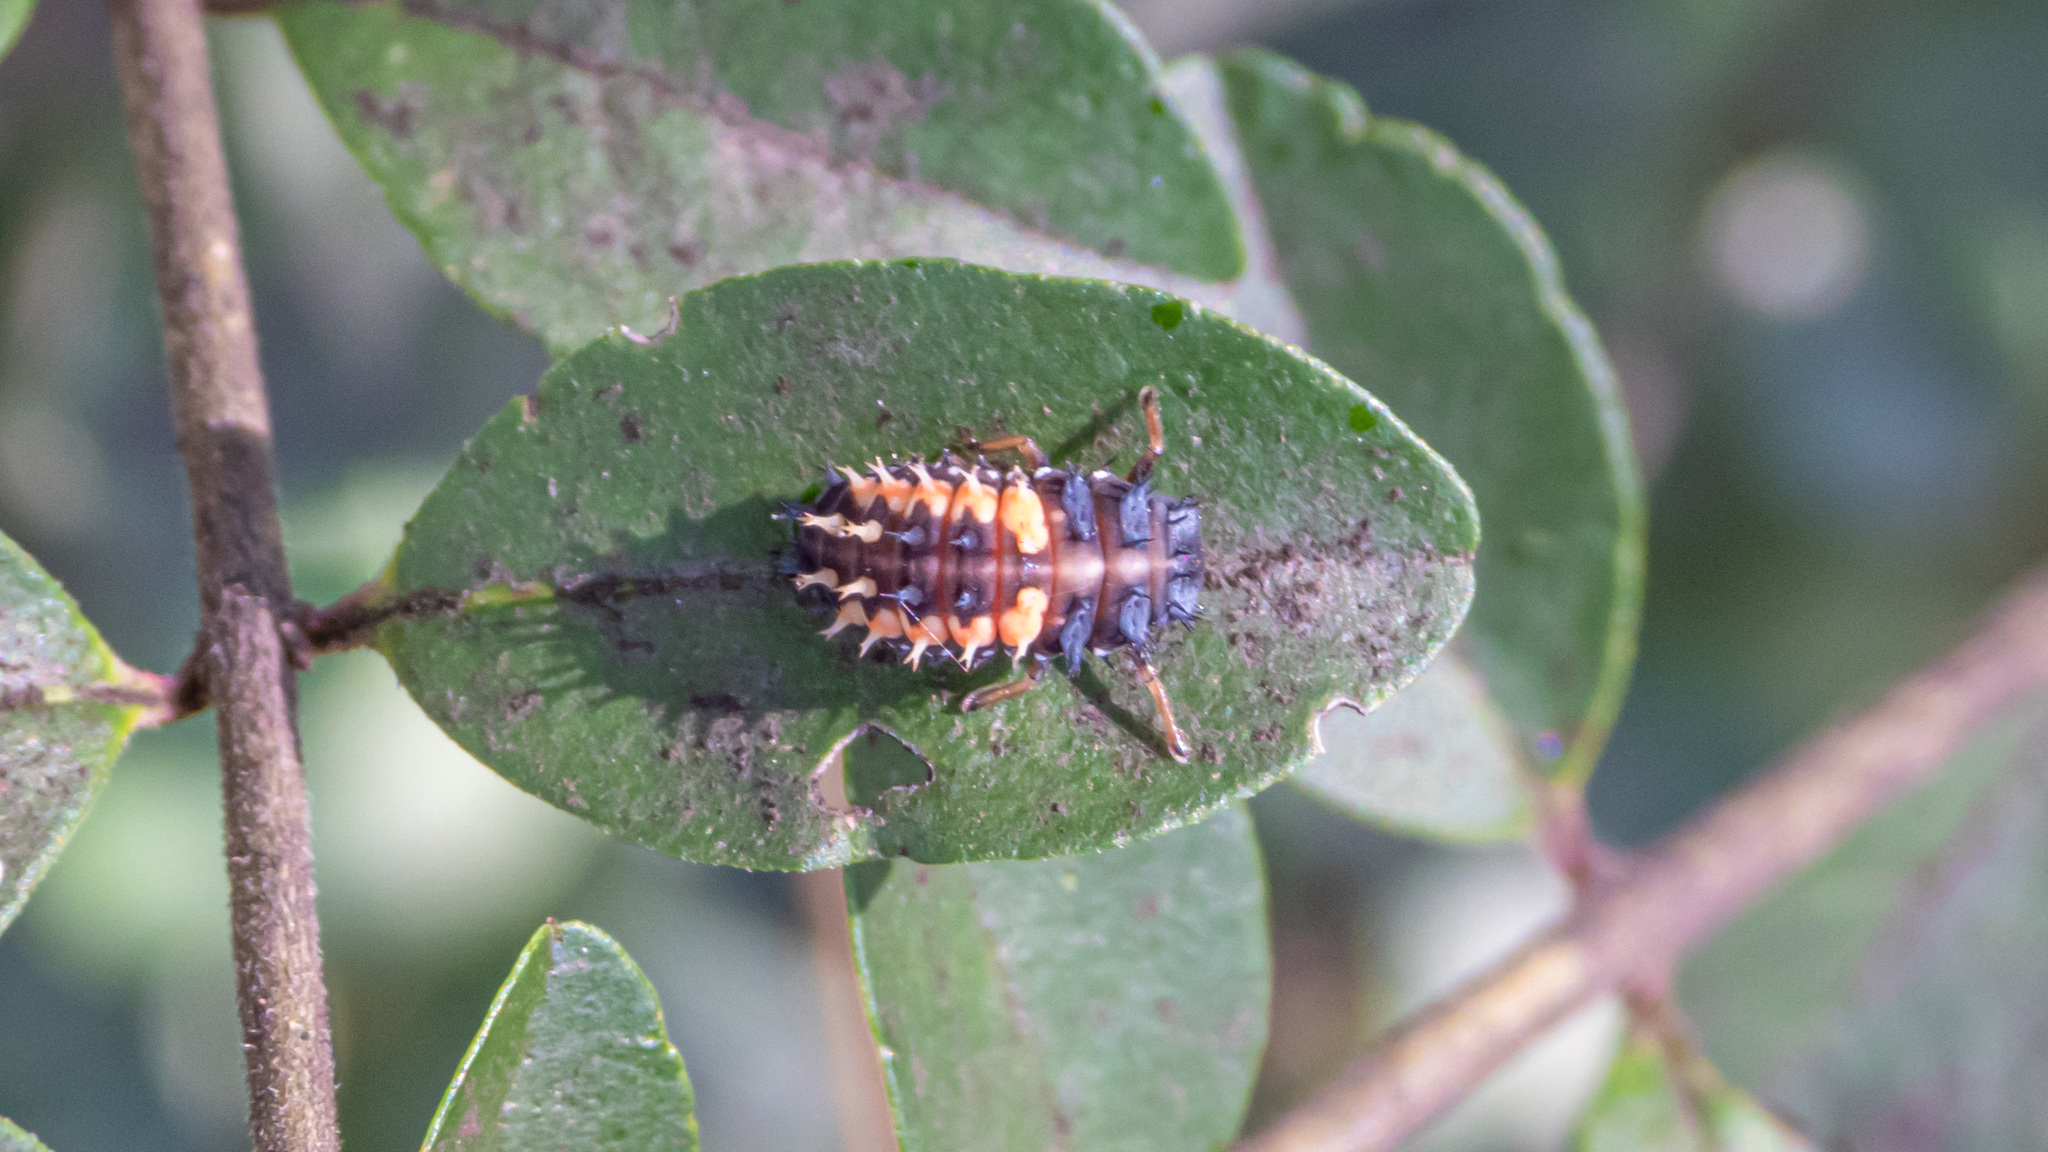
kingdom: Animalia
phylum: Arthropoda
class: Insecta
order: Coleoptera
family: Coccinellidae
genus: Harmonia
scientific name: Harmonia axyridis
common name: Harlequin ladybird
